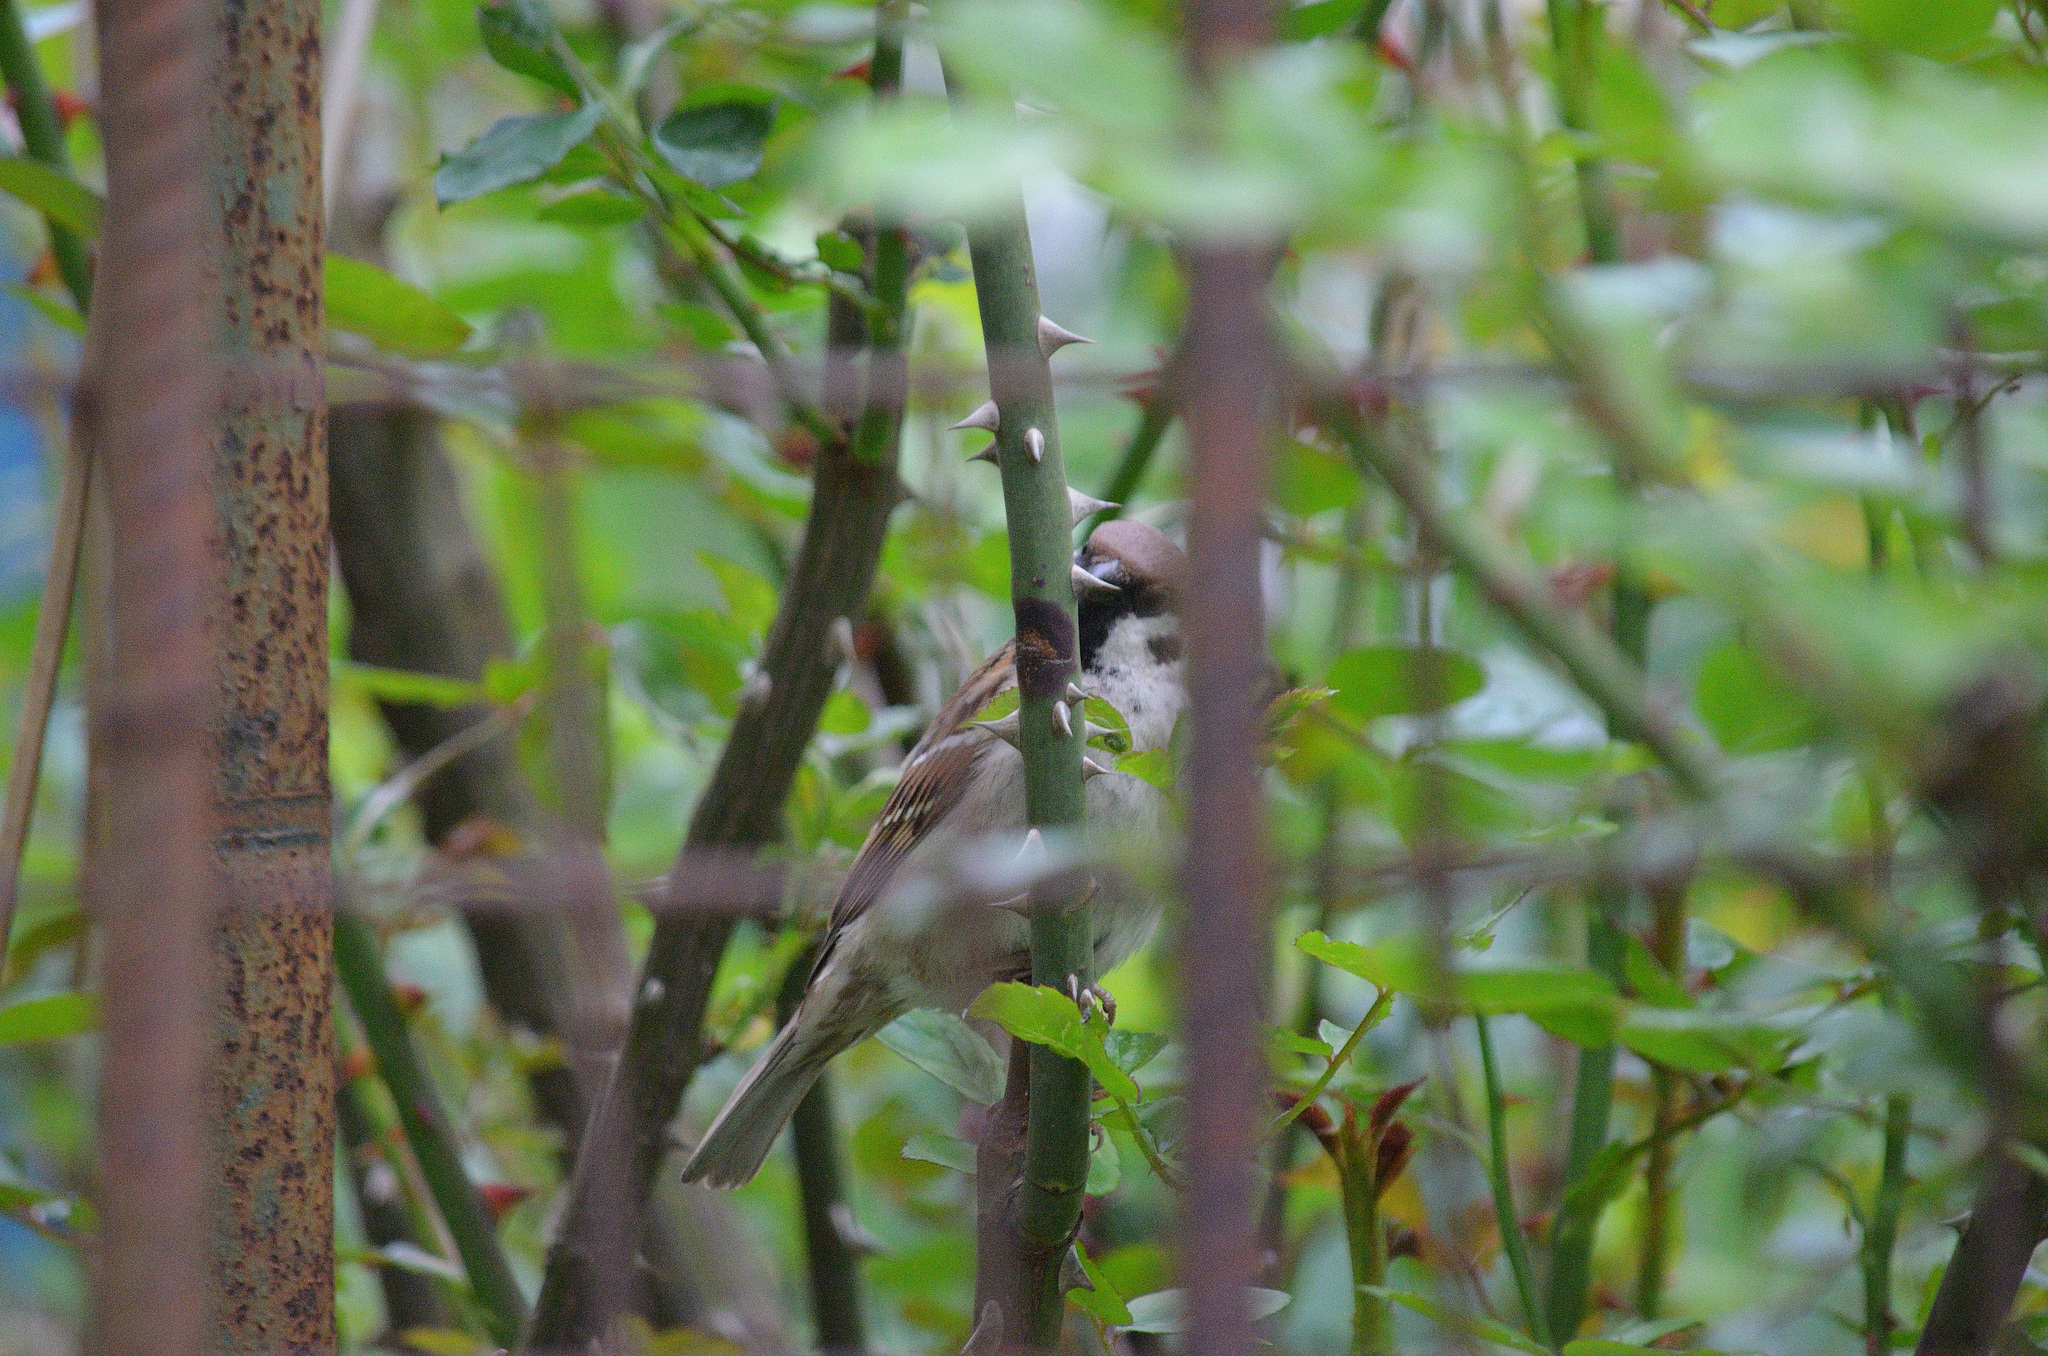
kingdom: Animalia
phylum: Chordata
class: Aves
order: Passeriformes
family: Passeridae
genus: Passer
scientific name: Passer montanus
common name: Eurasian tree sparrow
